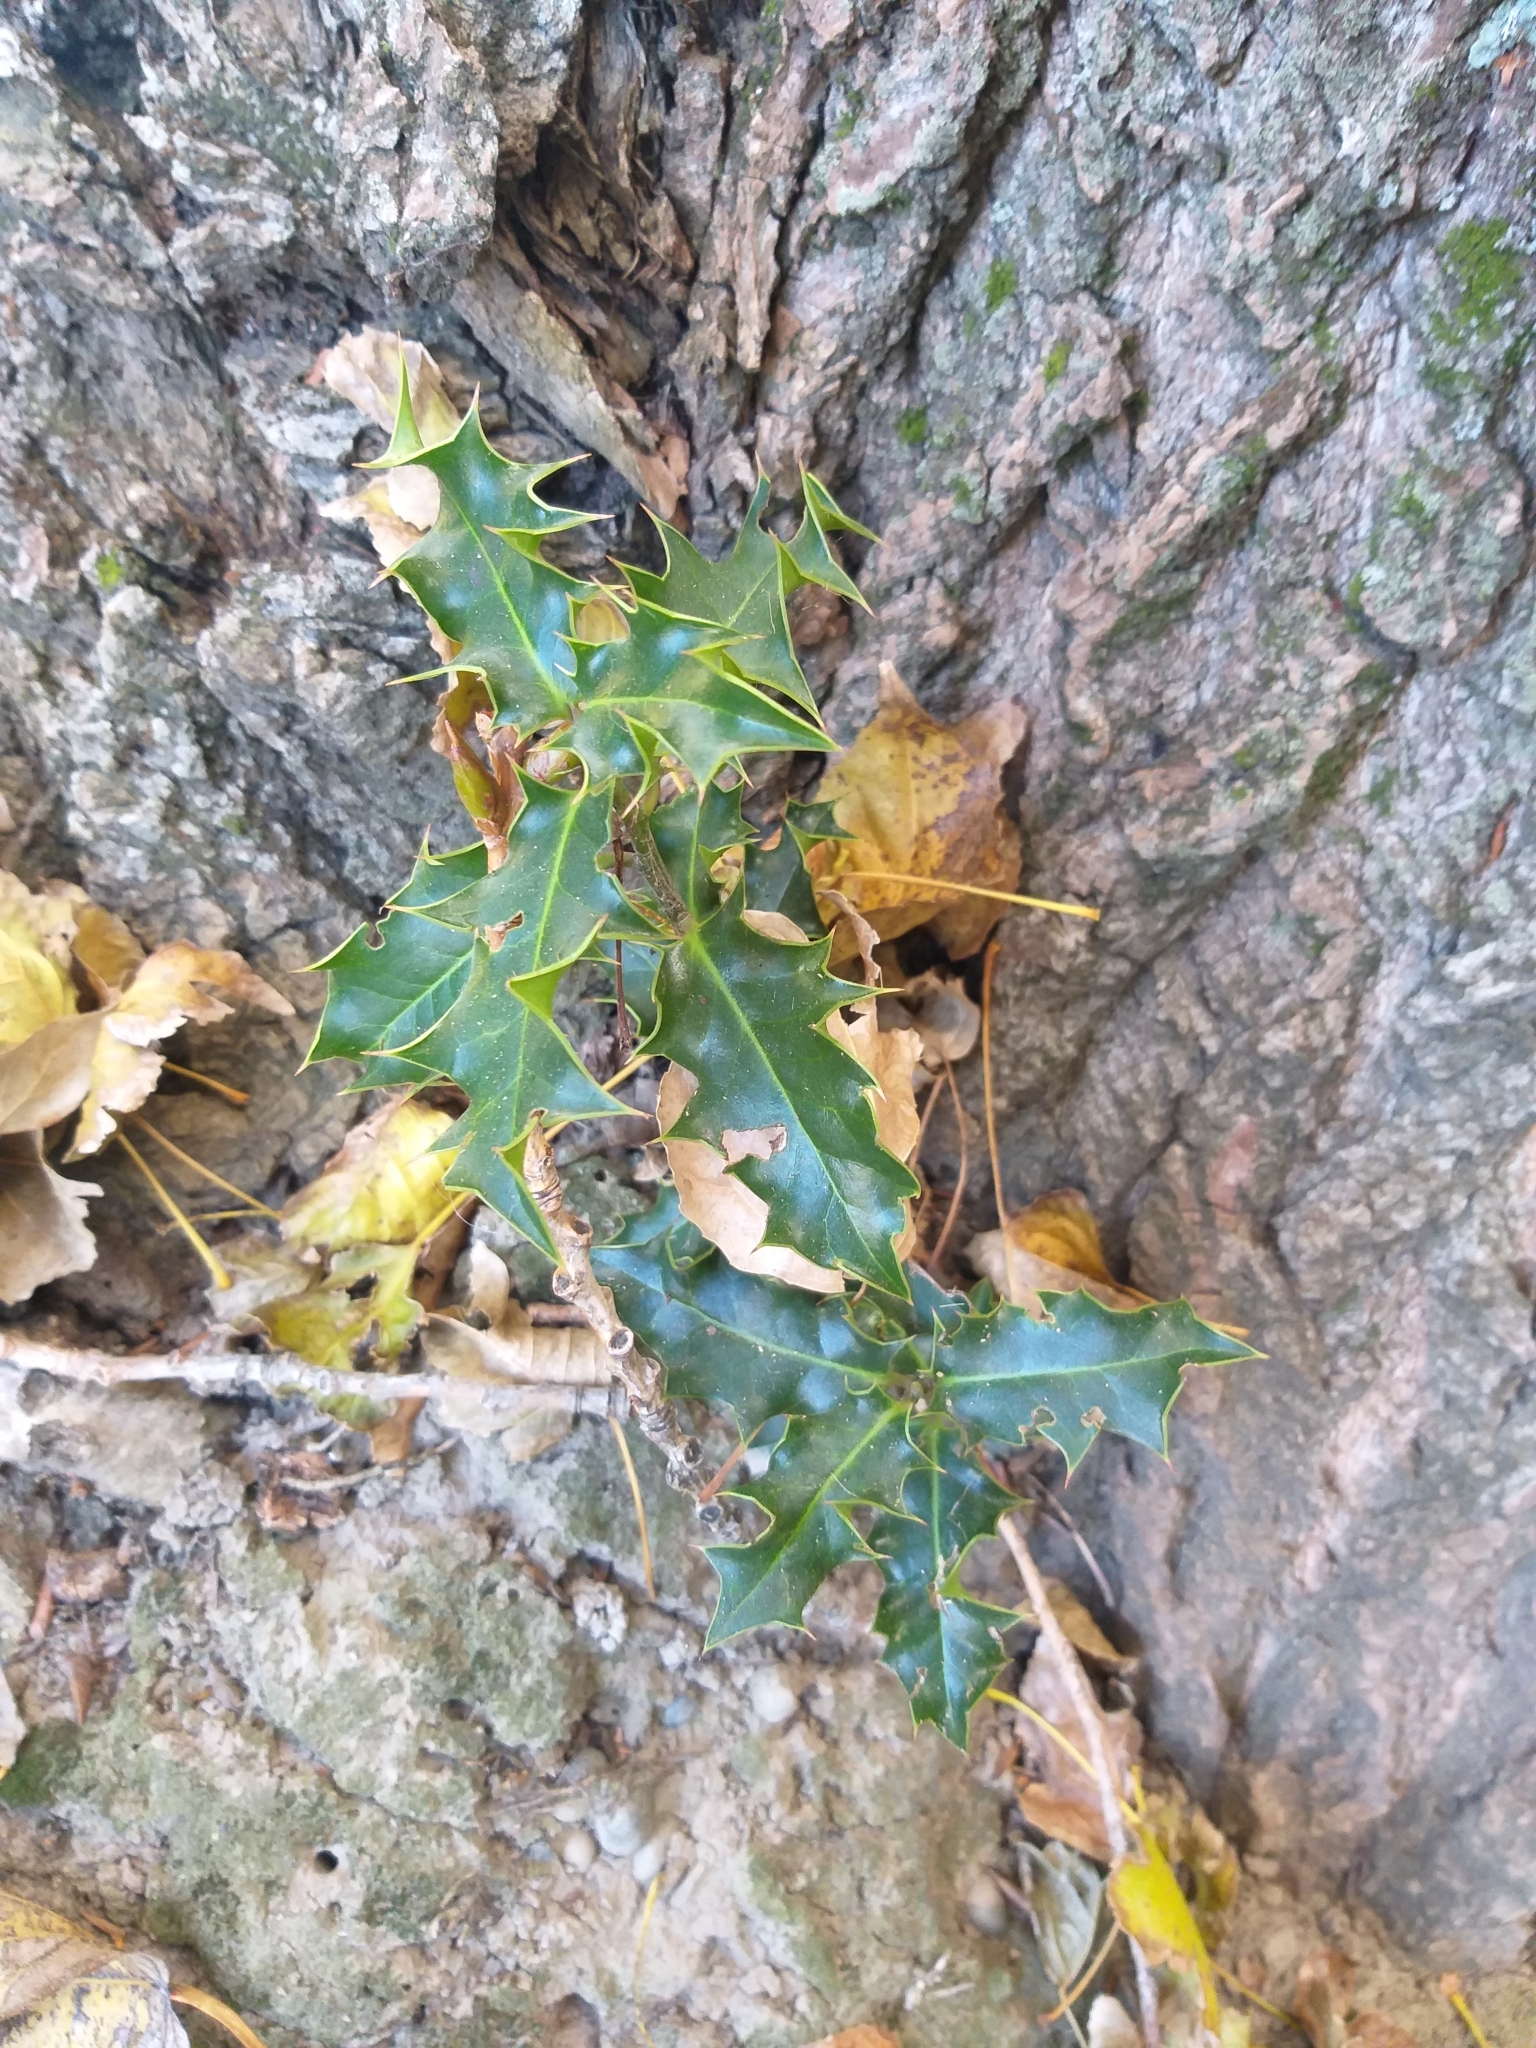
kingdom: Plantae
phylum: Tracheophyta
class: Magnoliopsida
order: Aquifoliales
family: Aquifoliaceae
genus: Ilex
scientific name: Ilex aquifolium
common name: English holly
